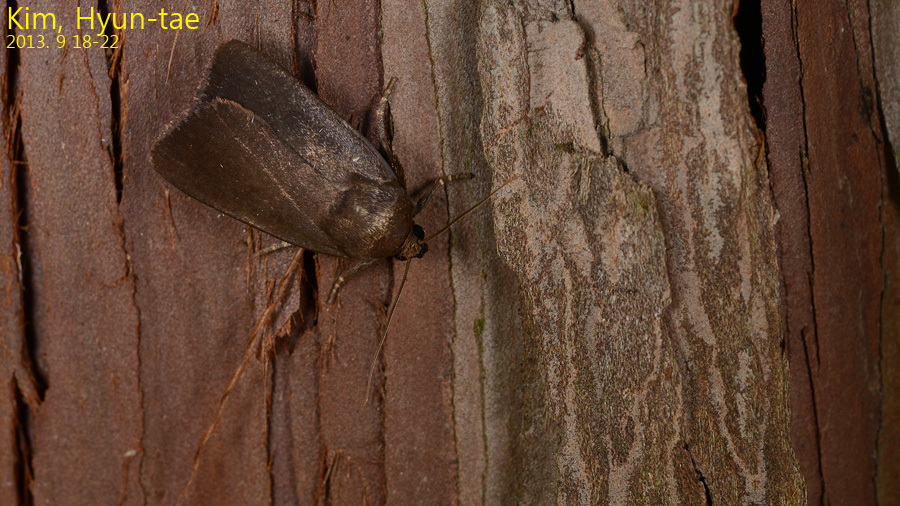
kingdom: Animalia
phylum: Arthropoda
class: Insecta
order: Lepidoptera
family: Noctuidae
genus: Amphipyra
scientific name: Amphipyra livida
